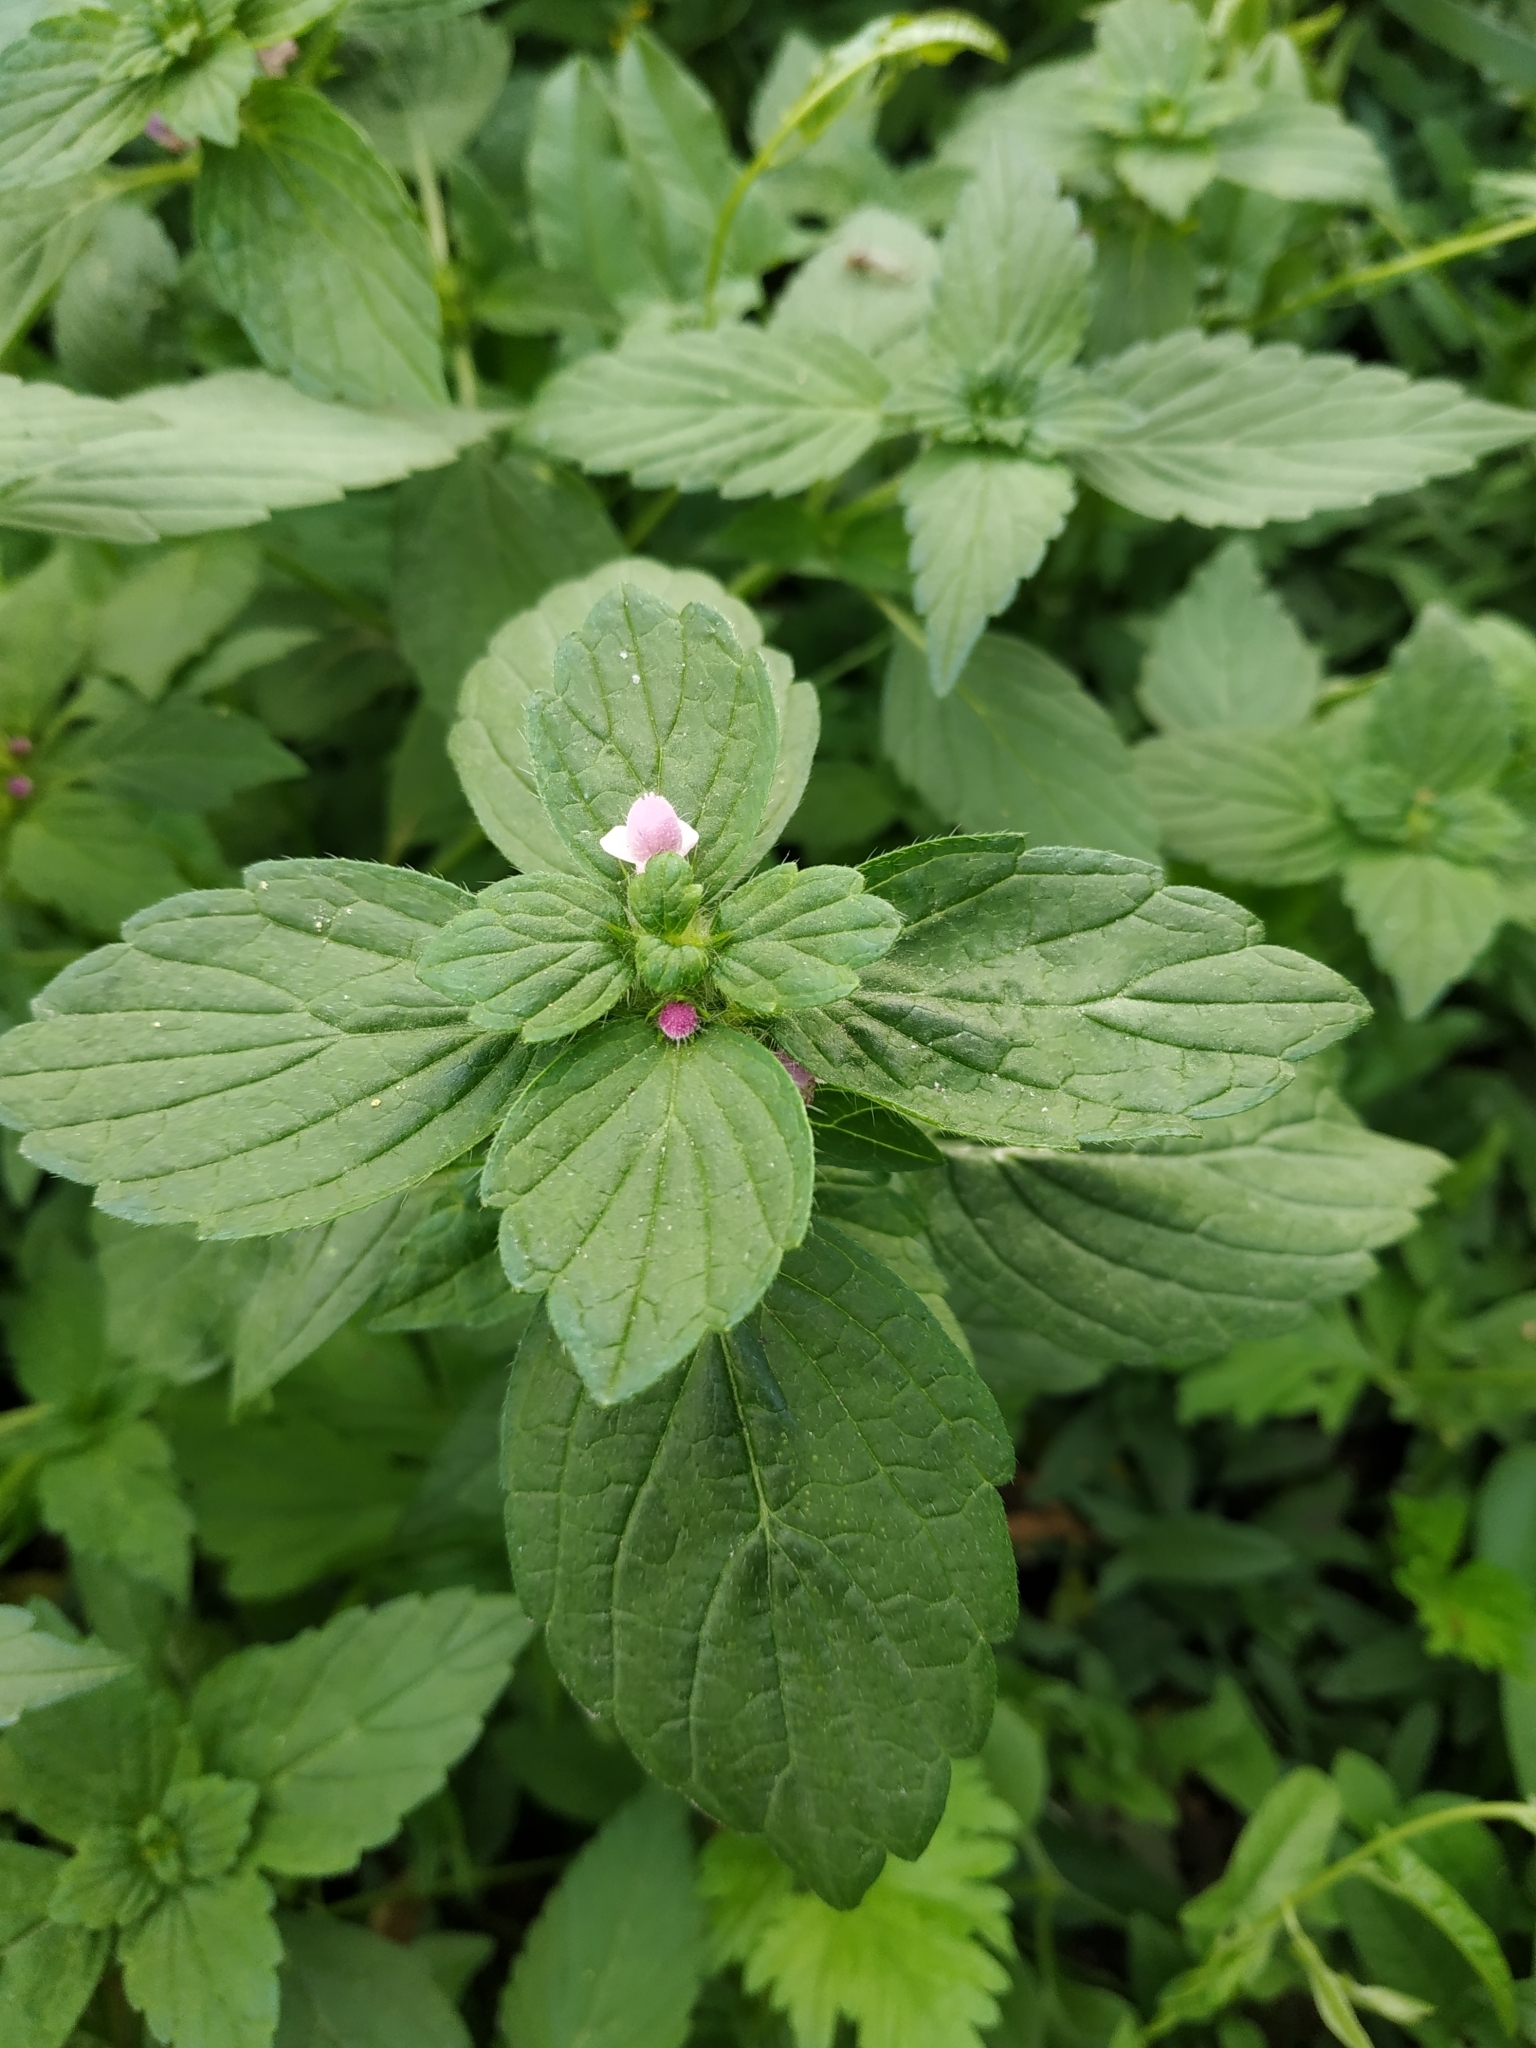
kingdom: Plantae
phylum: Tracheophyta
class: Magnoliopsida
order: Lamiales
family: Lamiaceae
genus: Galeopsis
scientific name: Galeopsis bifida
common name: Bifid hemp-nettle
